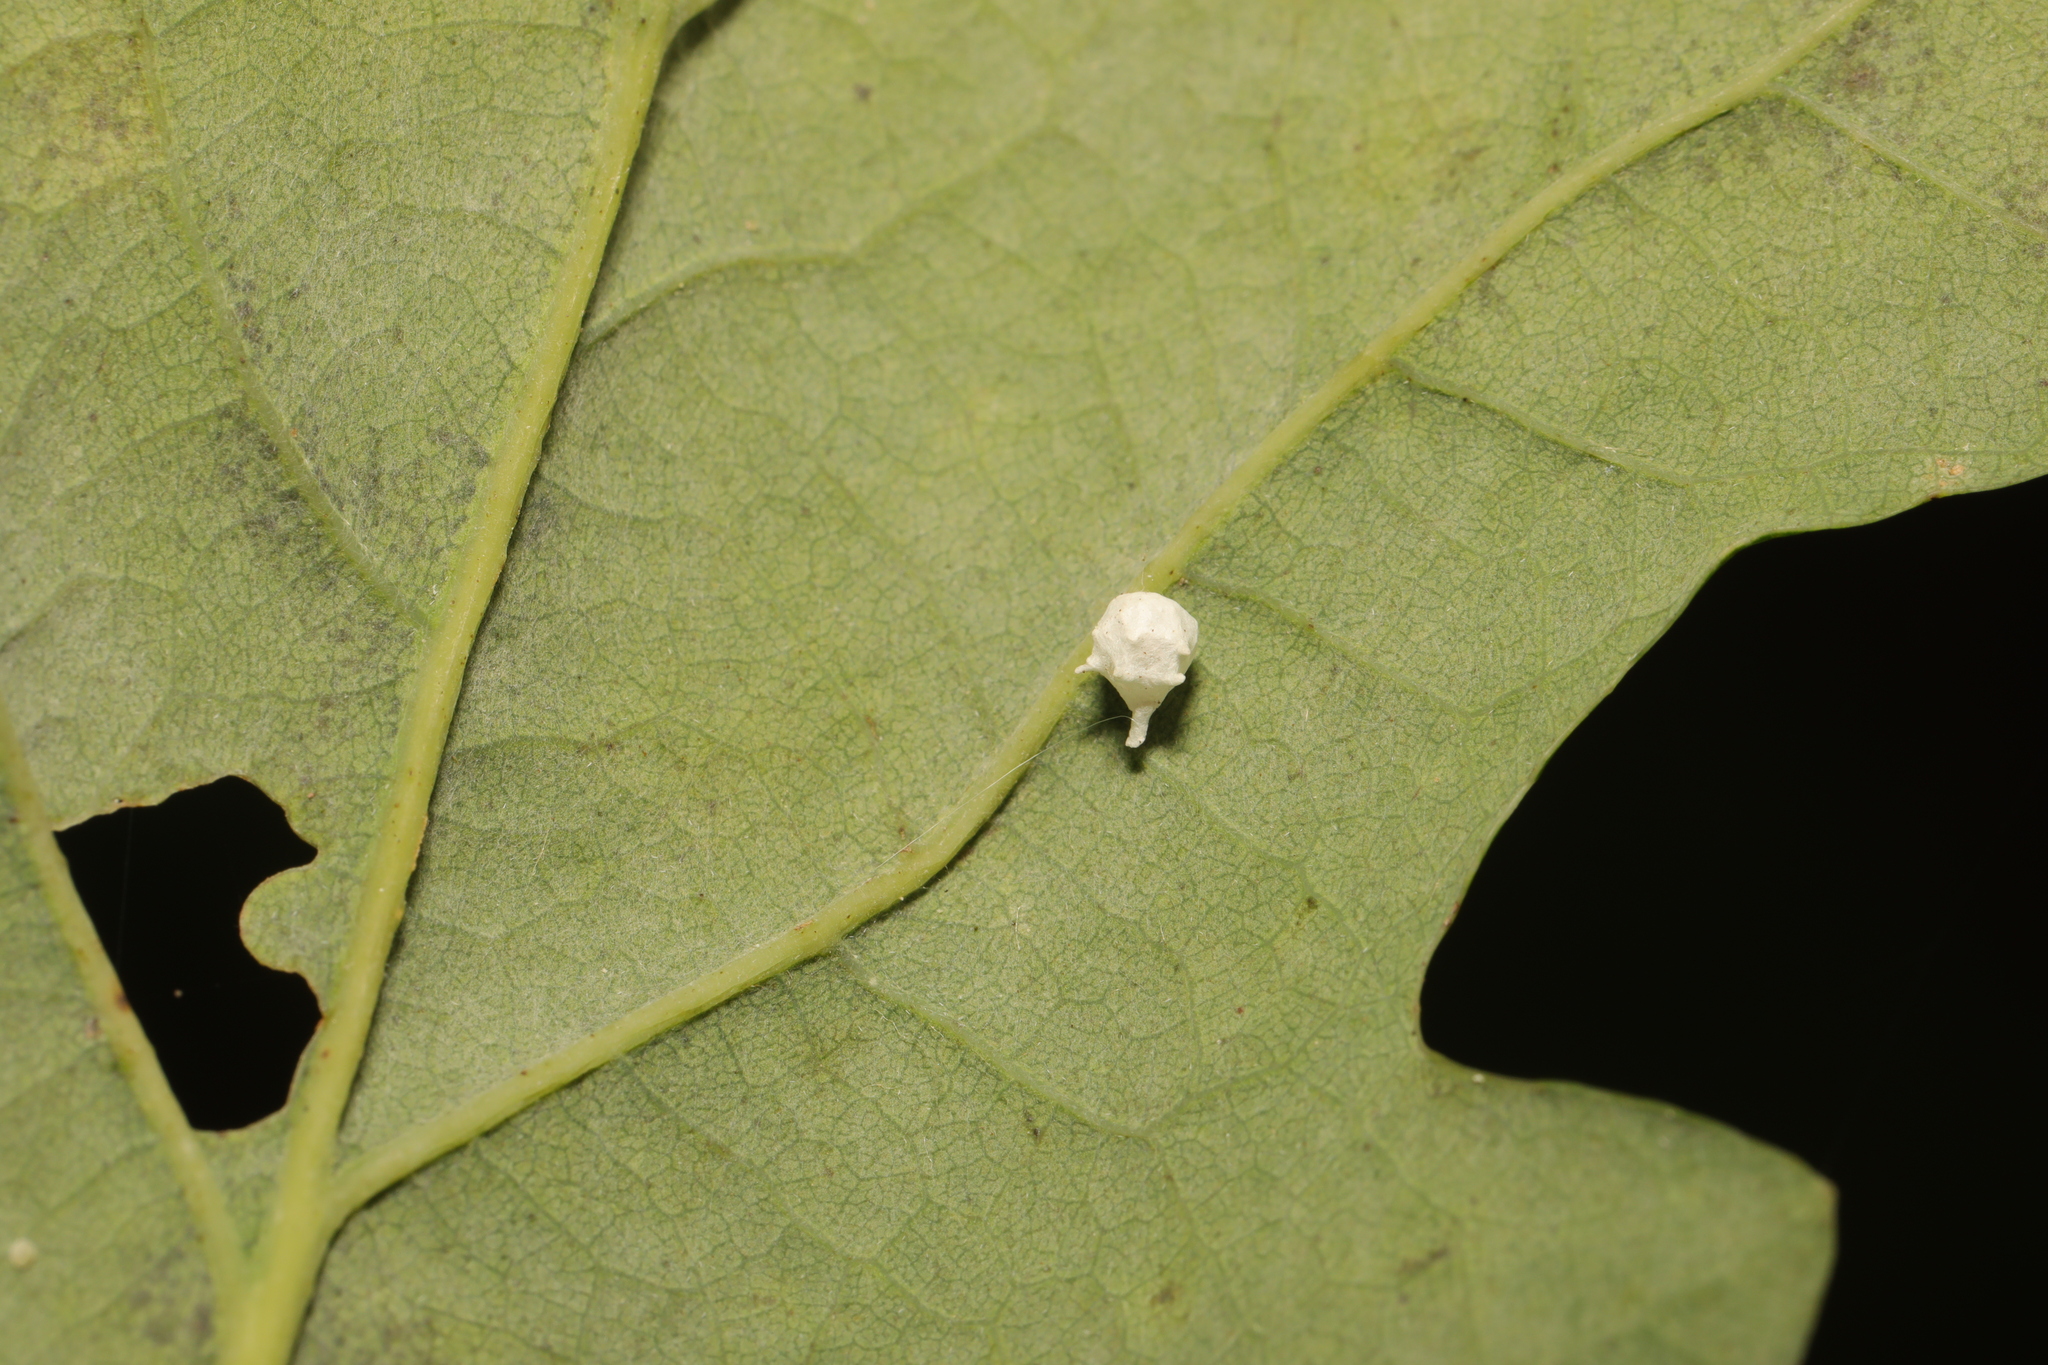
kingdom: Animalia
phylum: Arthropoda
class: Arachnida
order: Araneae
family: Theridiidae
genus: Paidiscura
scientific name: Paidiscura pallens
